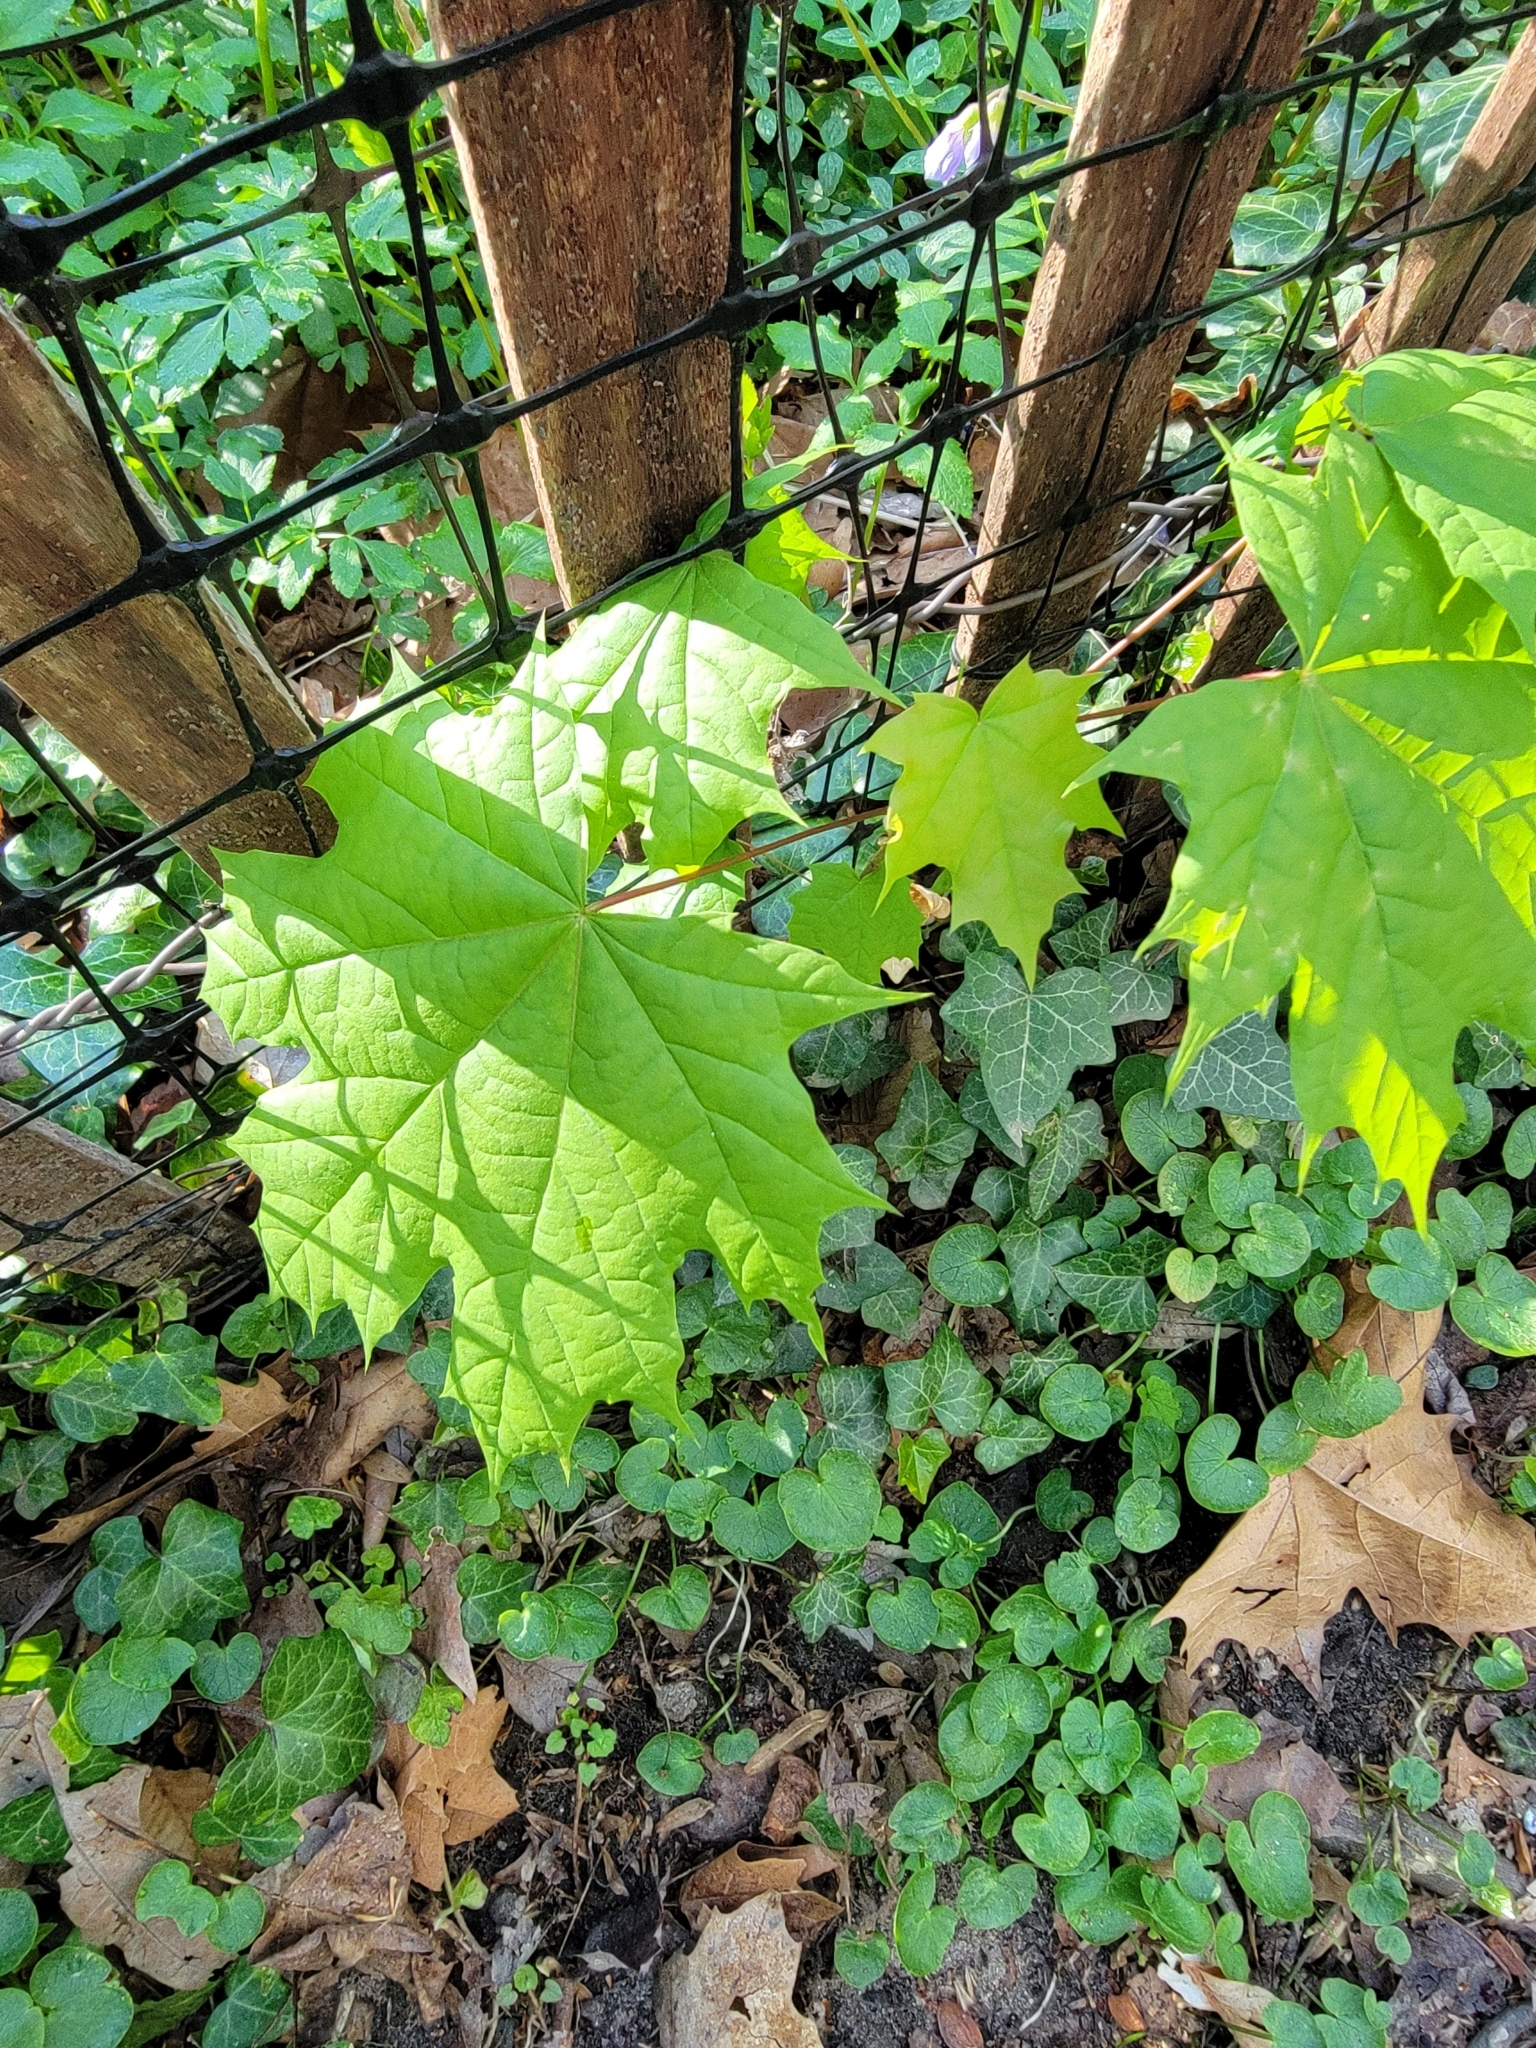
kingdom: Plantae
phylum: Tracheophyta
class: Magnoliopsida
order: Sapindales
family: Sapindaceae
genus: Acer
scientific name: Acer platanoides
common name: Norway maple
